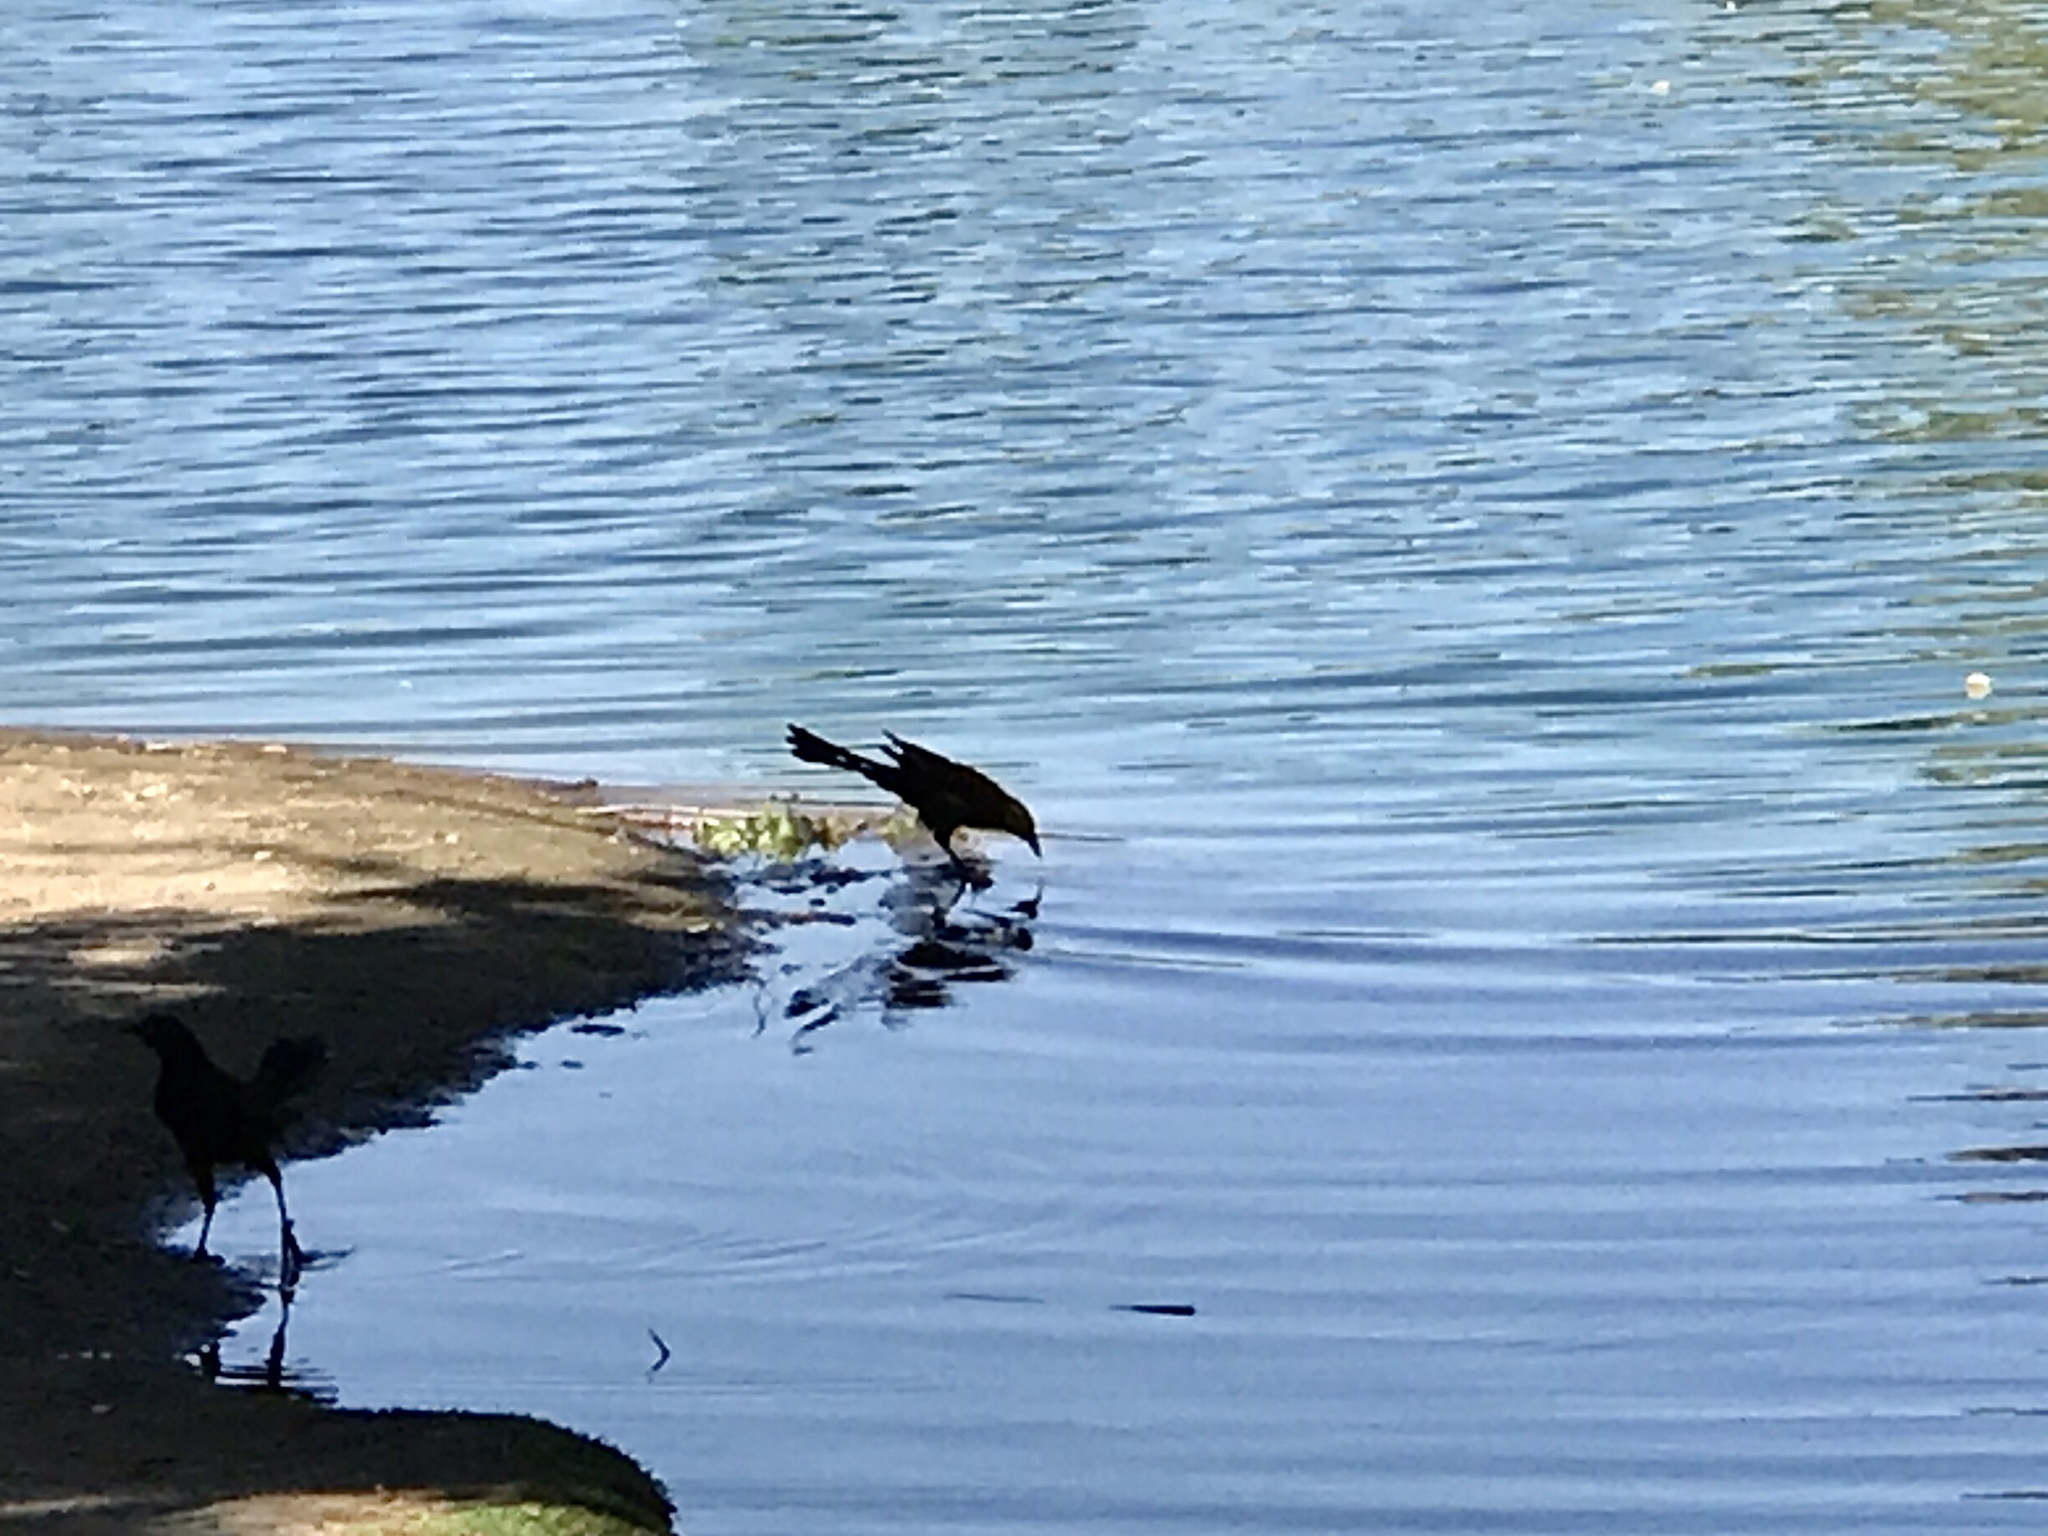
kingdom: Animalia
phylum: Chordata
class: Aves
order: Passeriformes
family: Icteridae
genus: Quiscalus
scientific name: Quiscalus mexicanus
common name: Great-tailed grackle
